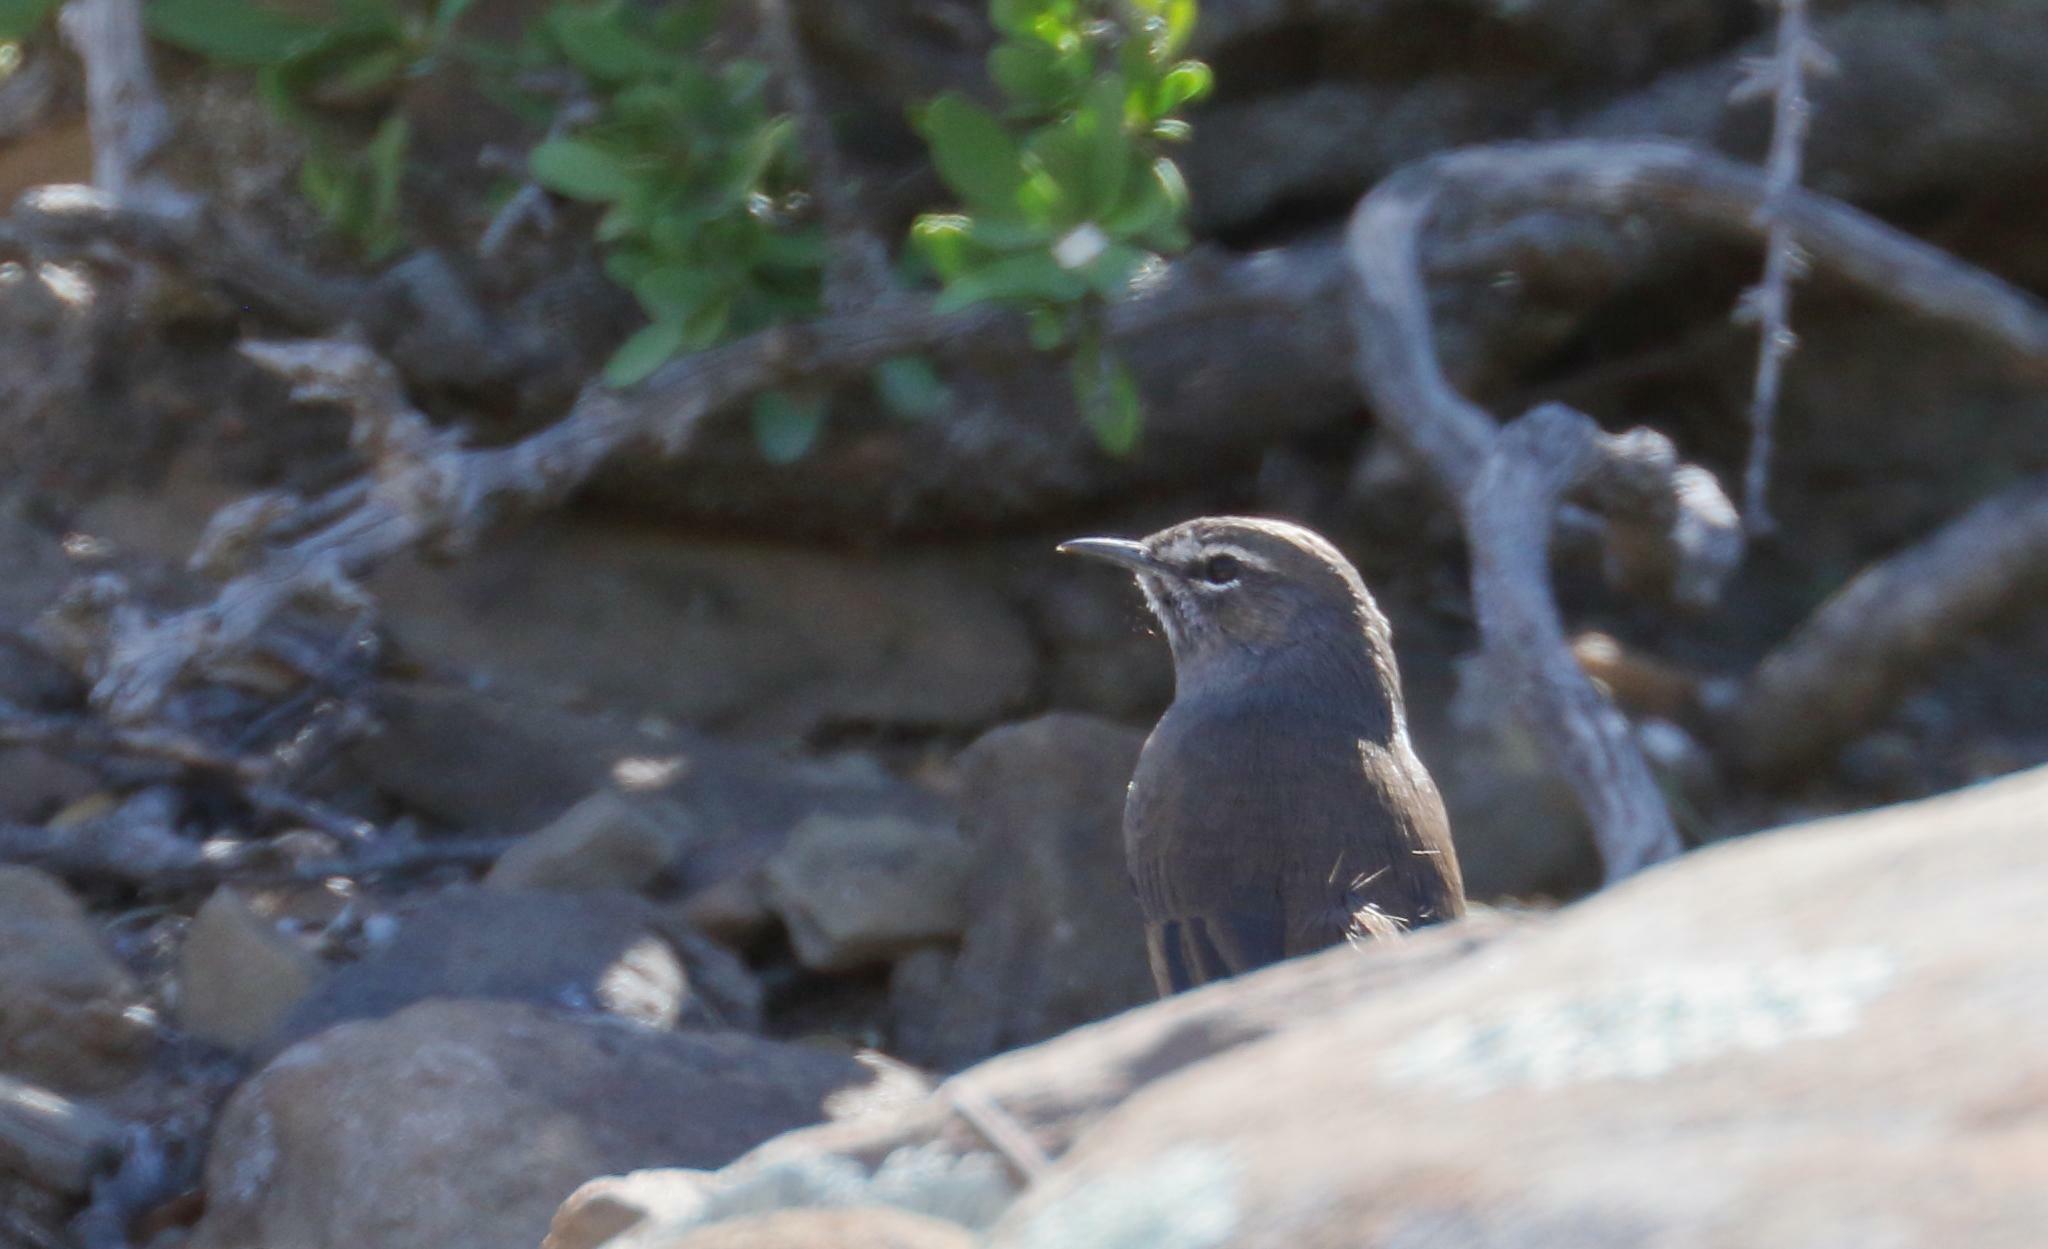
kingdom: Animalia
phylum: Chordata
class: Aves
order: Passeriformes
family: Muscicapidae
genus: Erythropygia
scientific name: Erythropygia coryphoeus
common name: Karoo scrub robin
